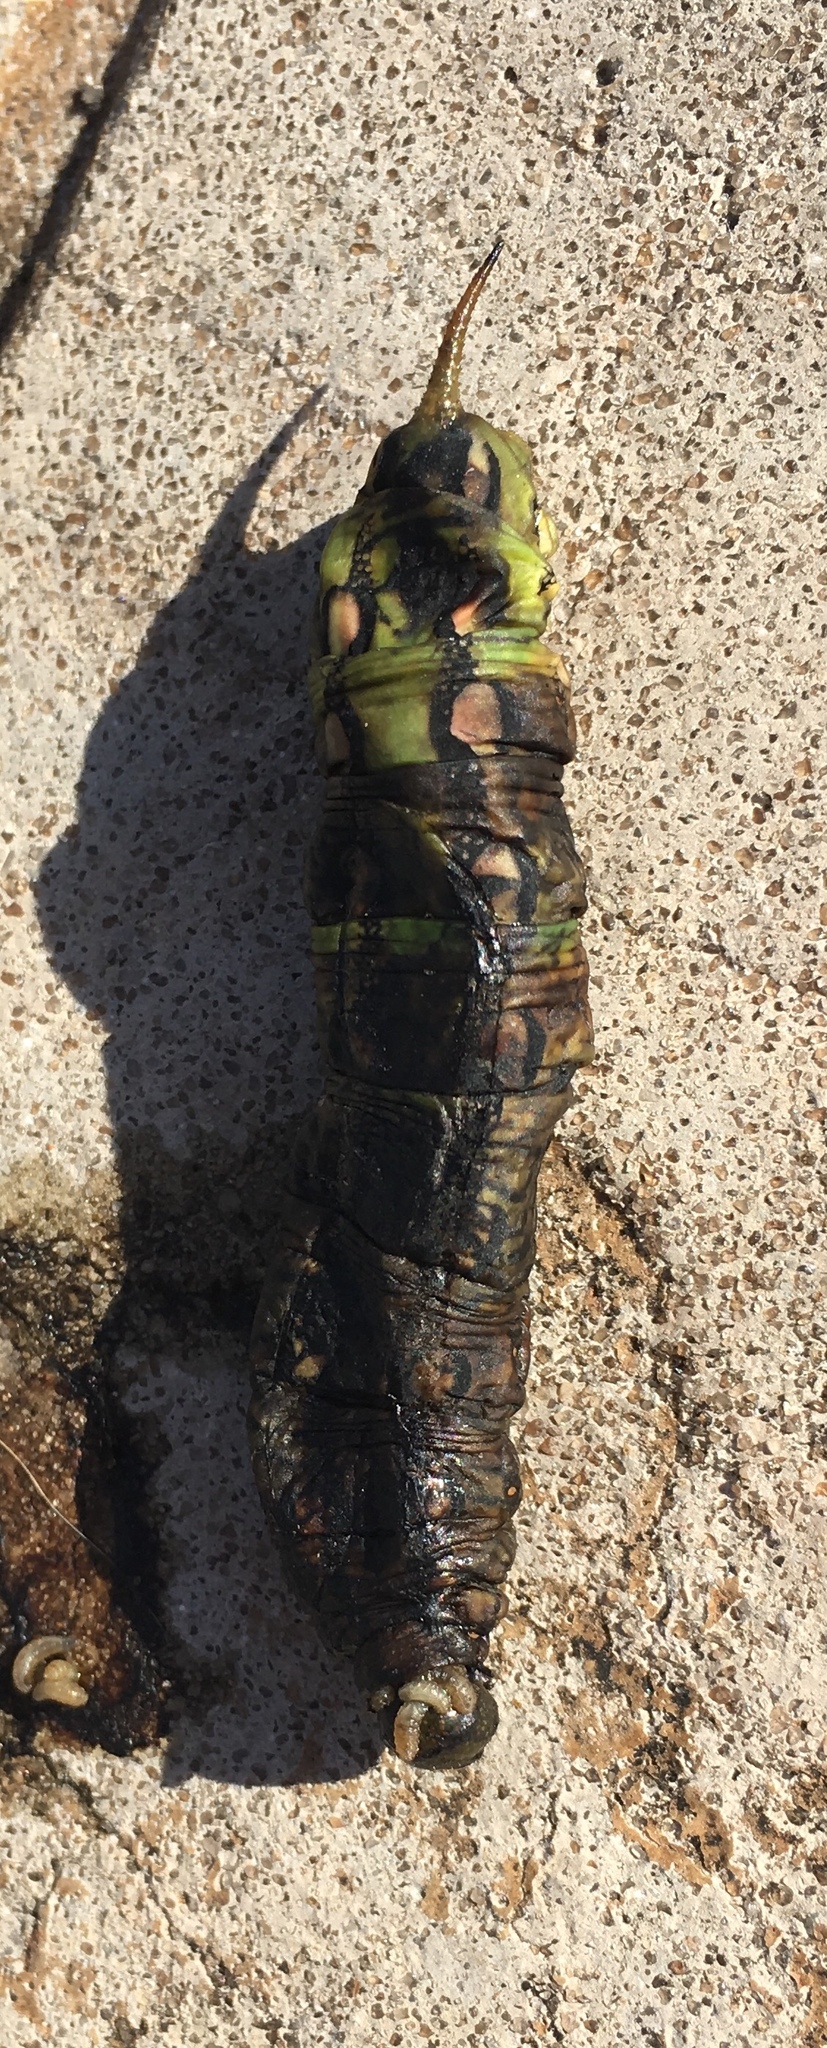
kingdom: Animalia
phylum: Arthropoda
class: Insecta
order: Lepidoptera
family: Sphingidae
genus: Hyles
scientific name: Hyles lineata
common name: White-lined sphinx
